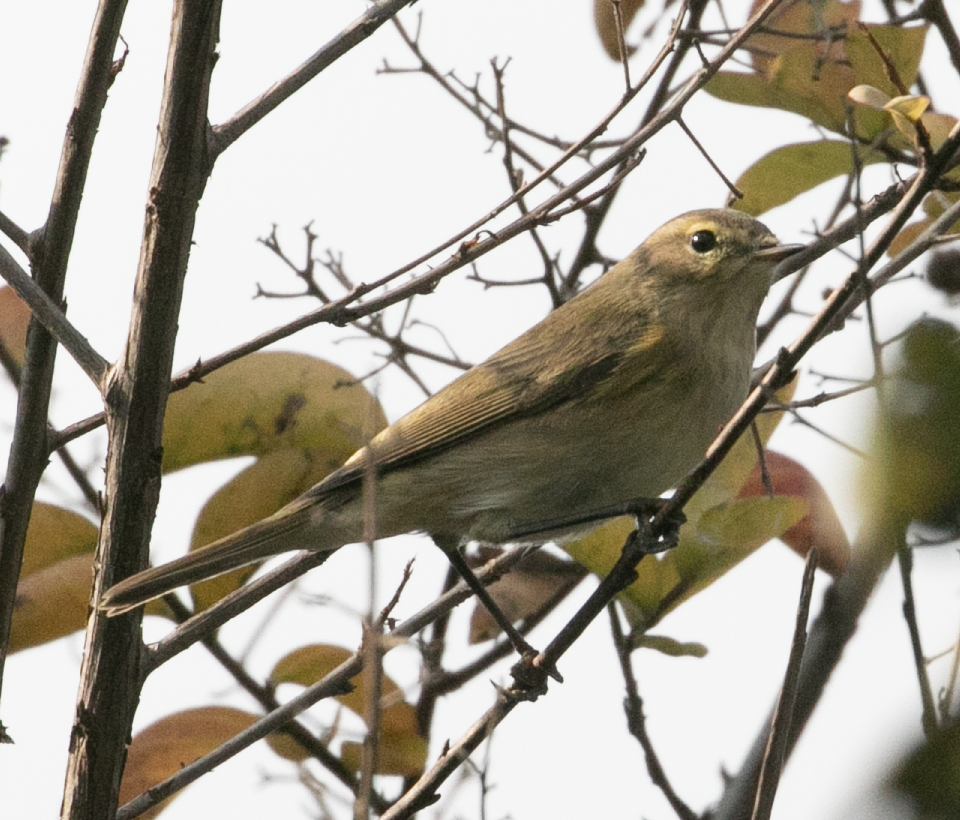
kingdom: Animalia
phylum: Chordata
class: Aves
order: Passeriformes
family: Phylloscopidae
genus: Phylloscopus
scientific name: Phylloscopus collybita
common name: Common chiffchaff
